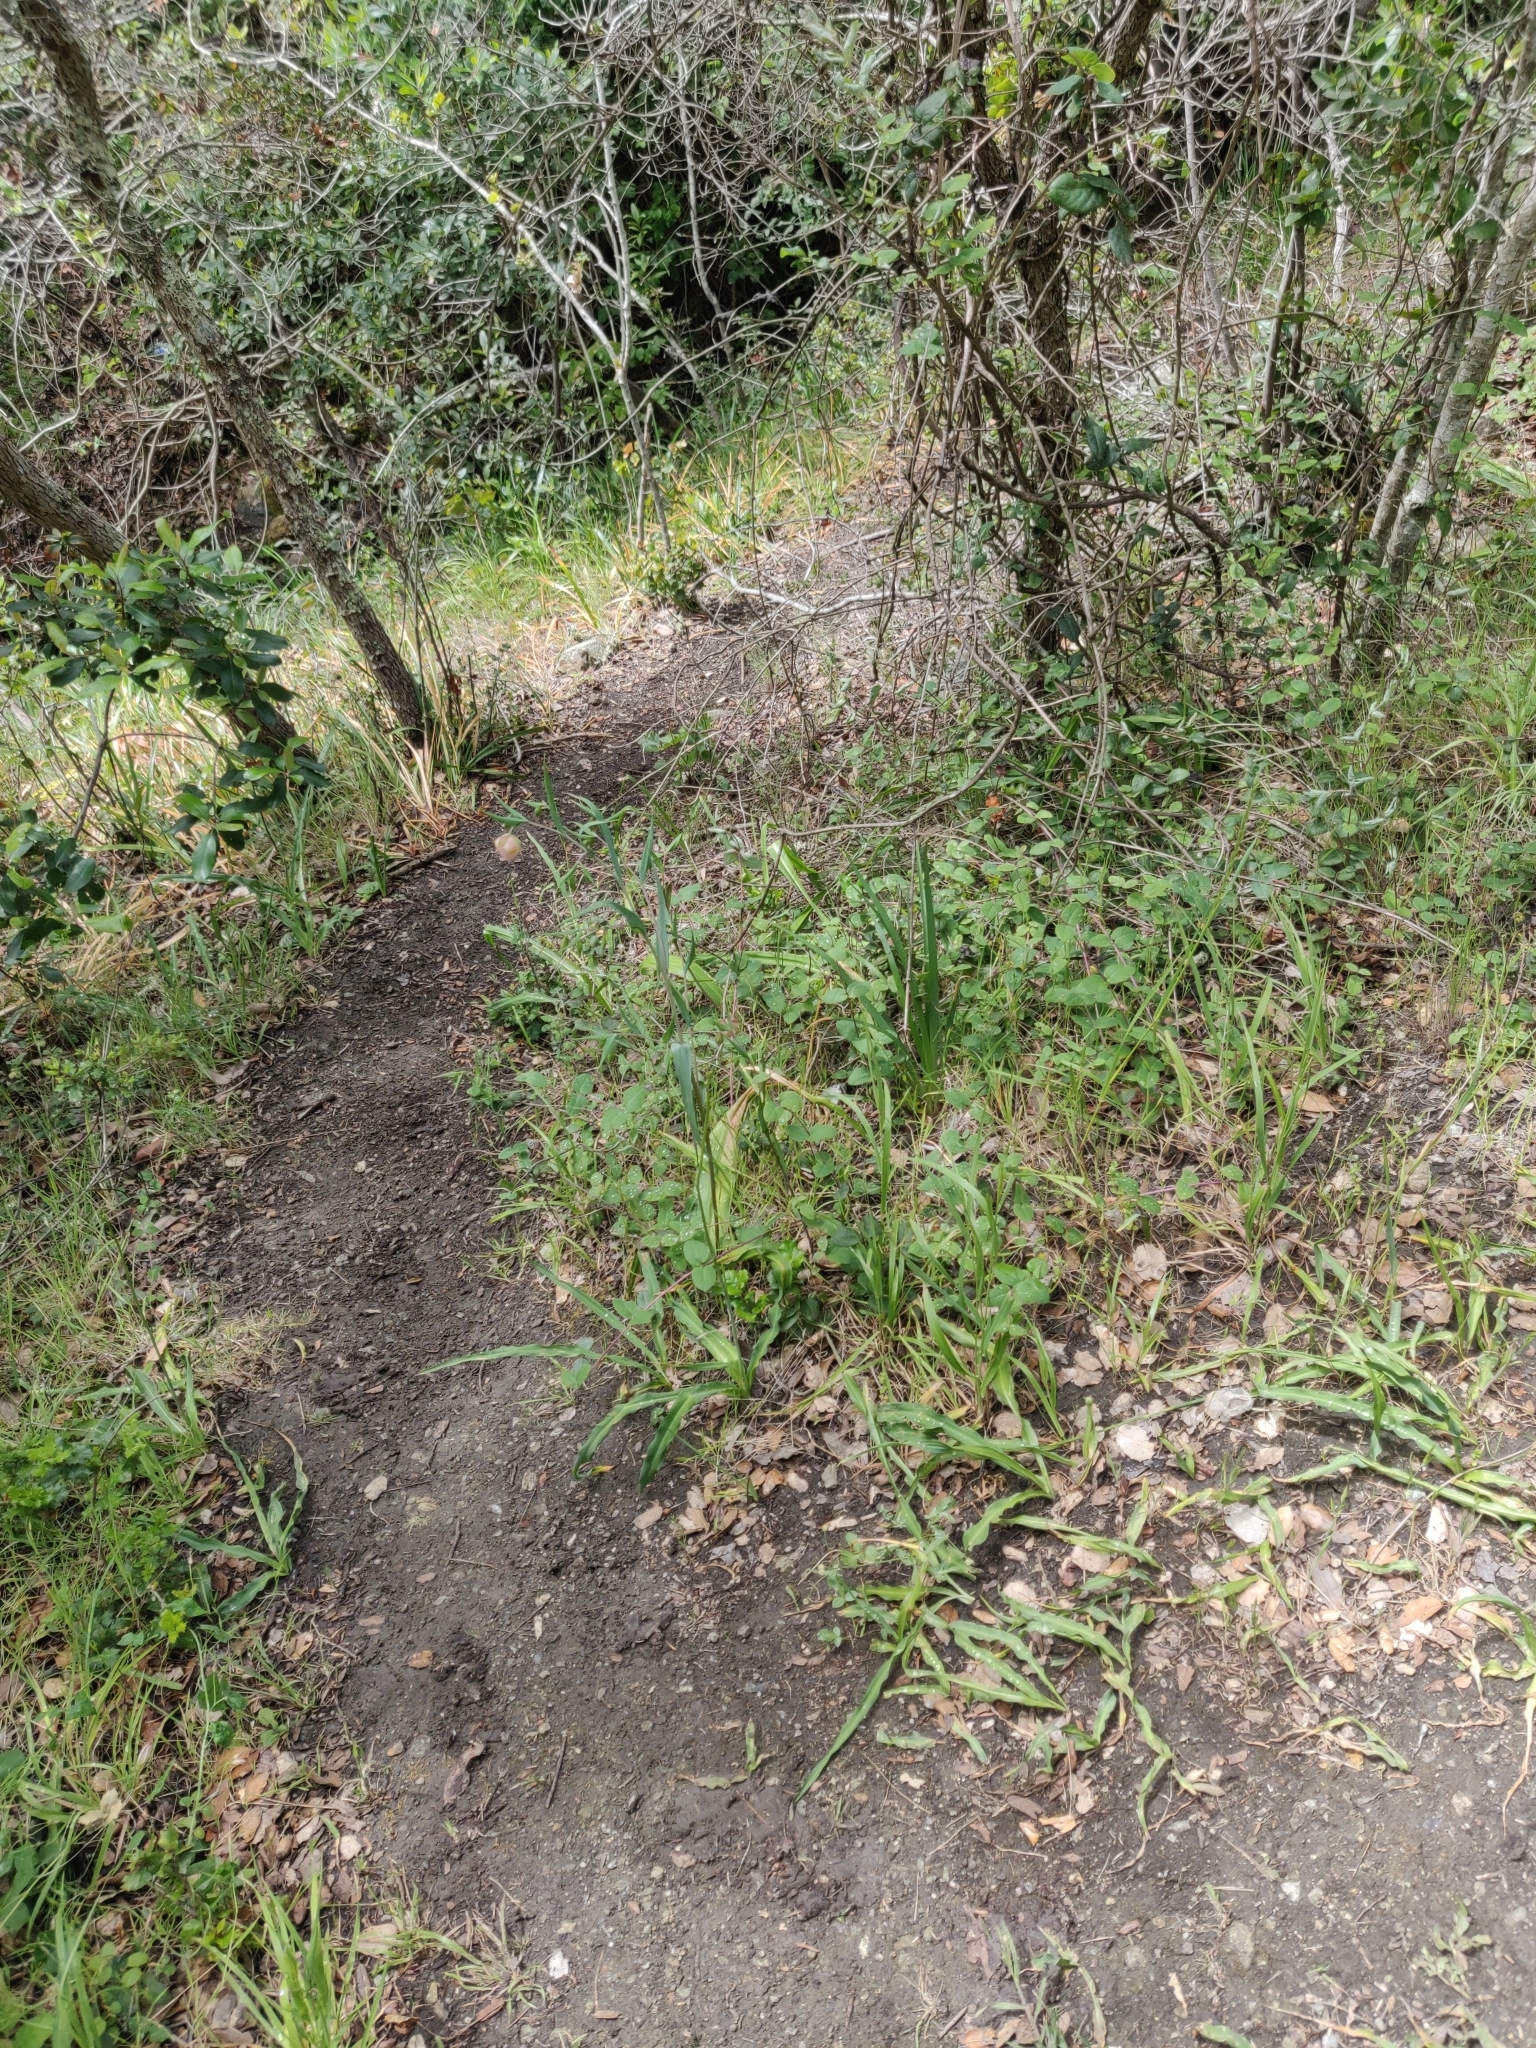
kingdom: Plantae
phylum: Tracheophyta
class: Liliopsida
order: Liliales
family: Liliaceae
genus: Calochortus
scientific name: Calochortus albus
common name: Fairy-lantern
